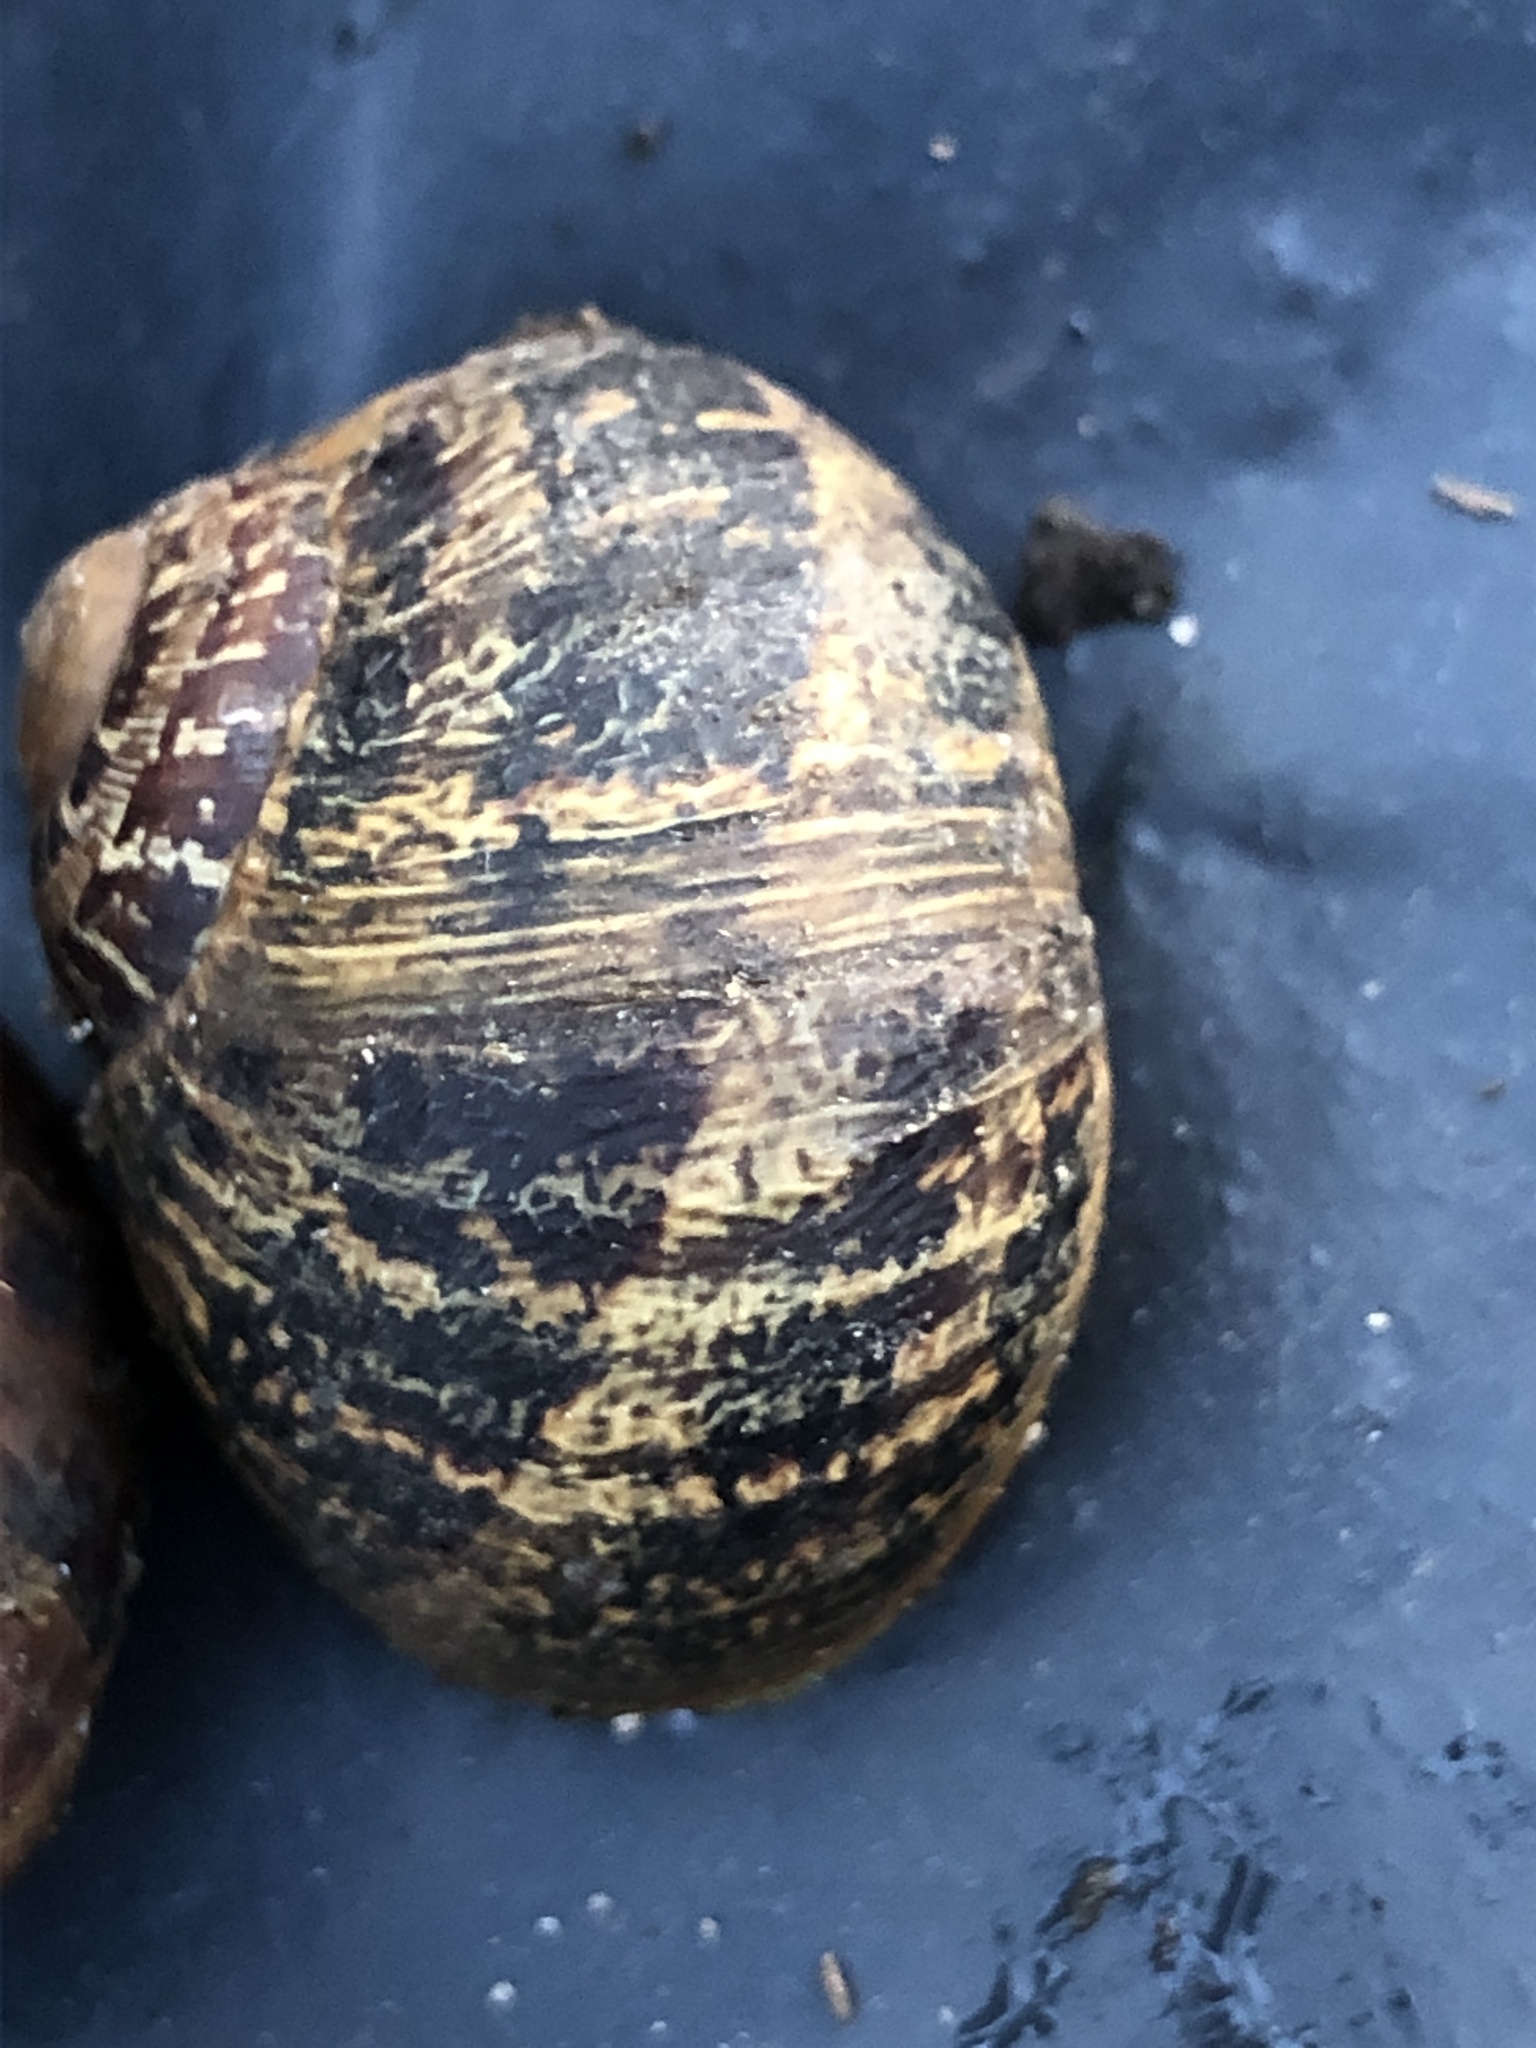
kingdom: Animalia
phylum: Mollusca
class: Gastropoda
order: Stylommatophora
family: Helicidae
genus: Cornu
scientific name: Cornu aspersum
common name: Brown garden snail
